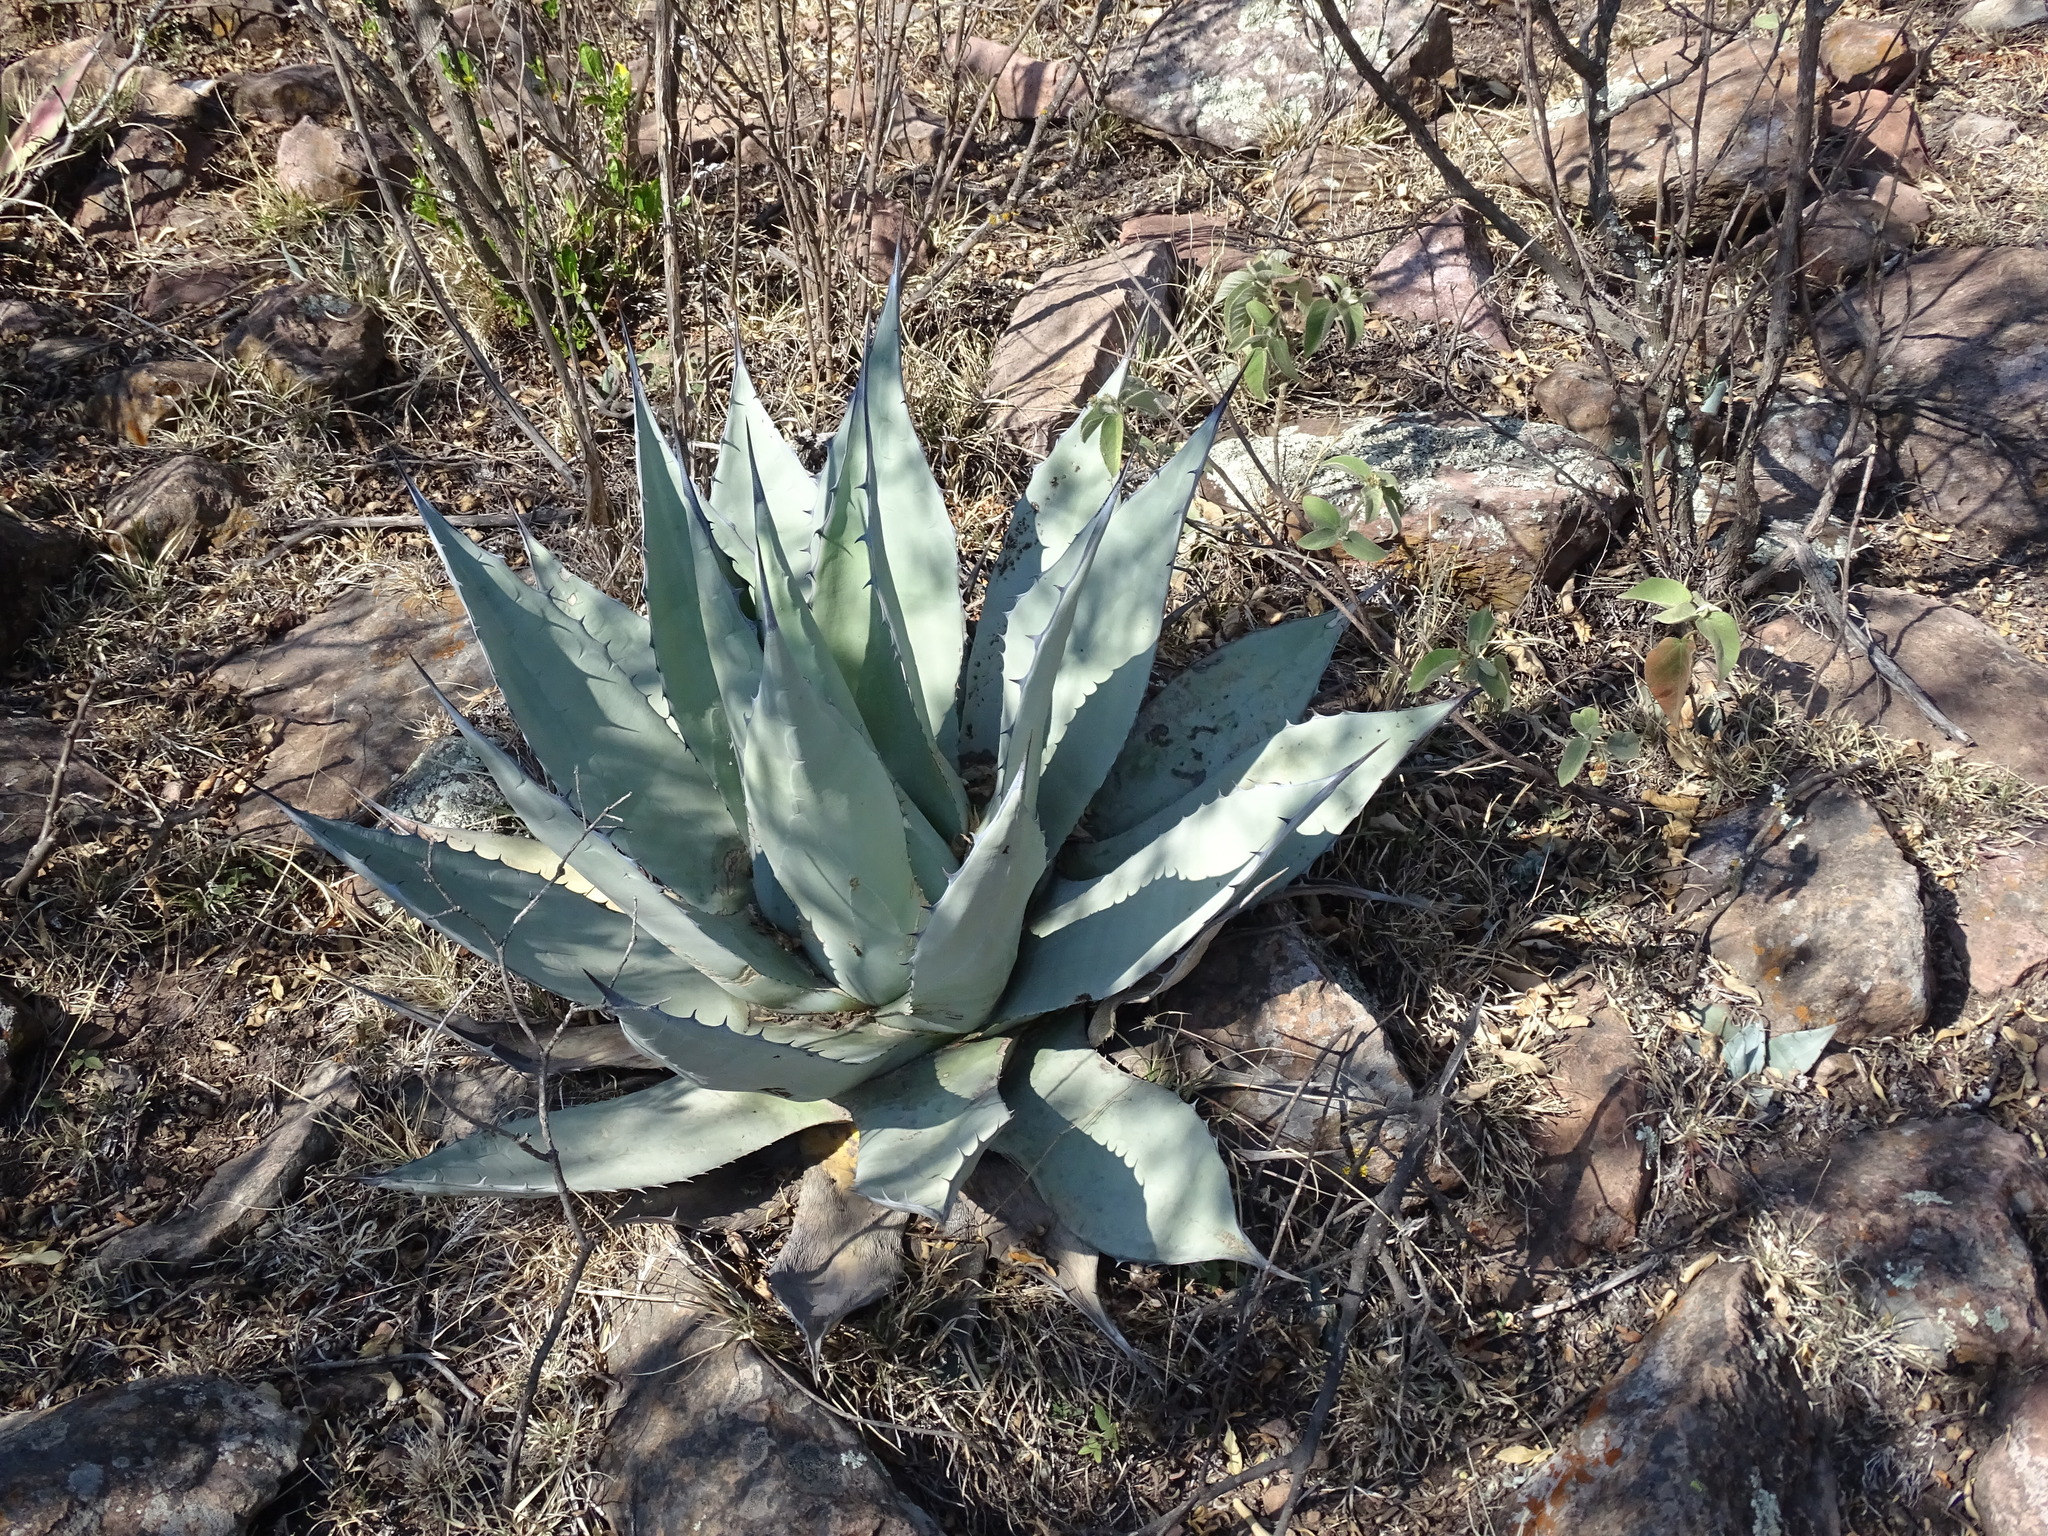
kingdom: Plantae
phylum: Tracheophyta
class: Liliopsida
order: Asparagales
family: Asparagaceae
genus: Agave
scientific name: Agave applanata
